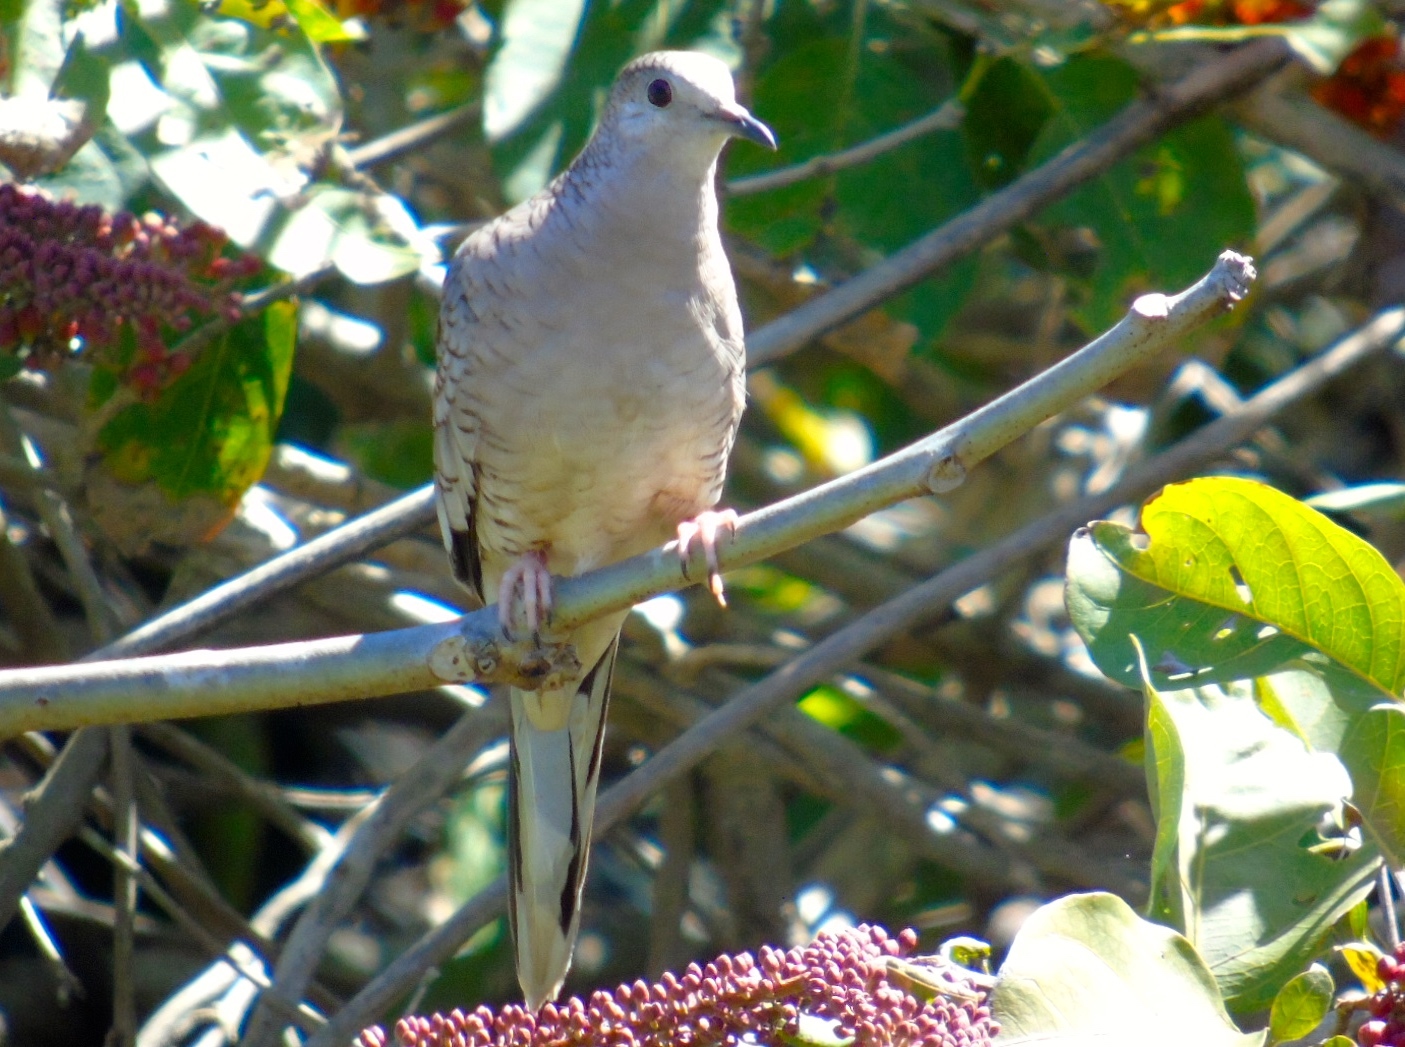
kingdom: Animalia
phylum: Chordata
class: Aves
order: Columbiformes
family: Columbidae
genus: Columbina
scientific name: Columbina inca
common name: Inca dove
